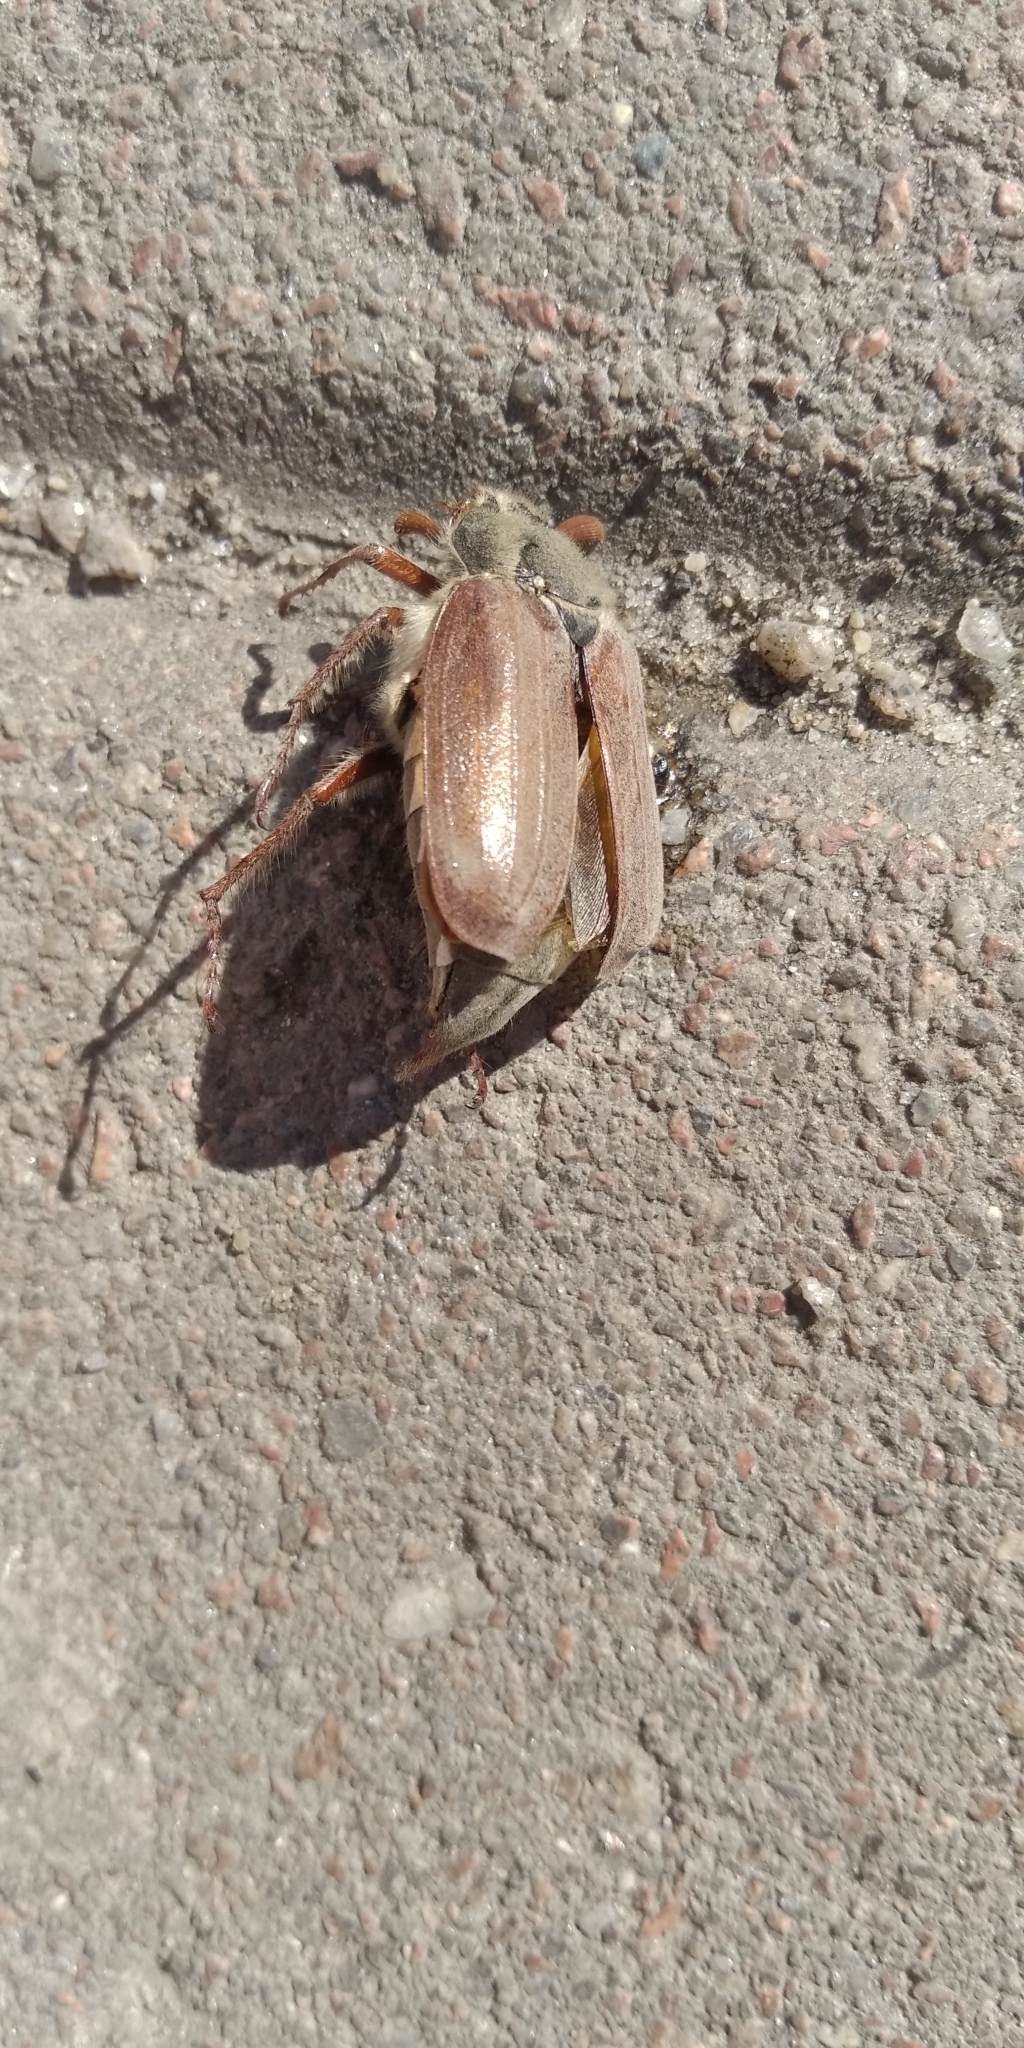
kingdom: Animalia
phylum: Arthropoda
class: Insecta
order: Coleoptera
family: Scarabaeidae
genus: Melolontha
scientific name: Melolontha melolontha
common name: Cockchafer maybeetle
